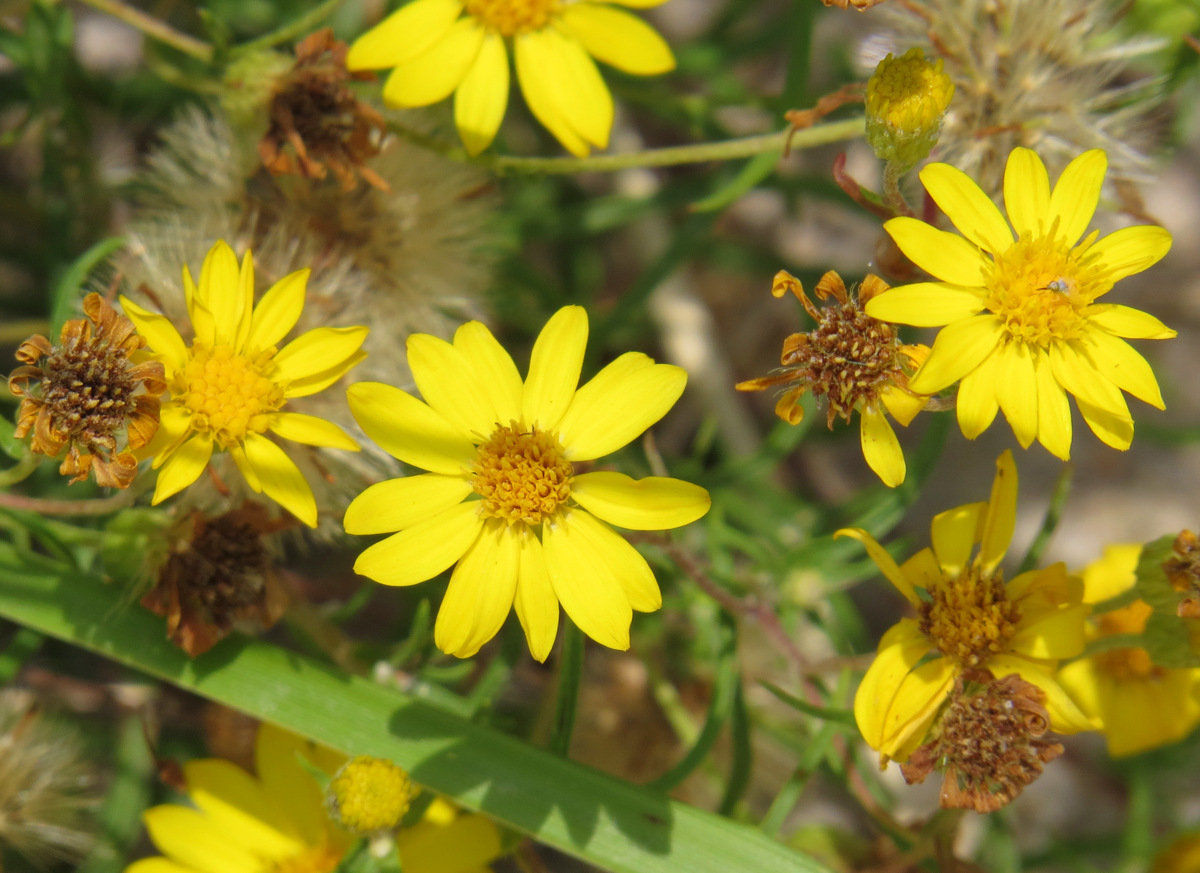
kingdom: Plantae
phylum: Tracheophyta
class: Magnoliopsida
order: Asterales
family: Asteraceae
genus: Pityopsis
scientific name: Pityopsis falcata
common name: Sickle-leaved goldenaster
